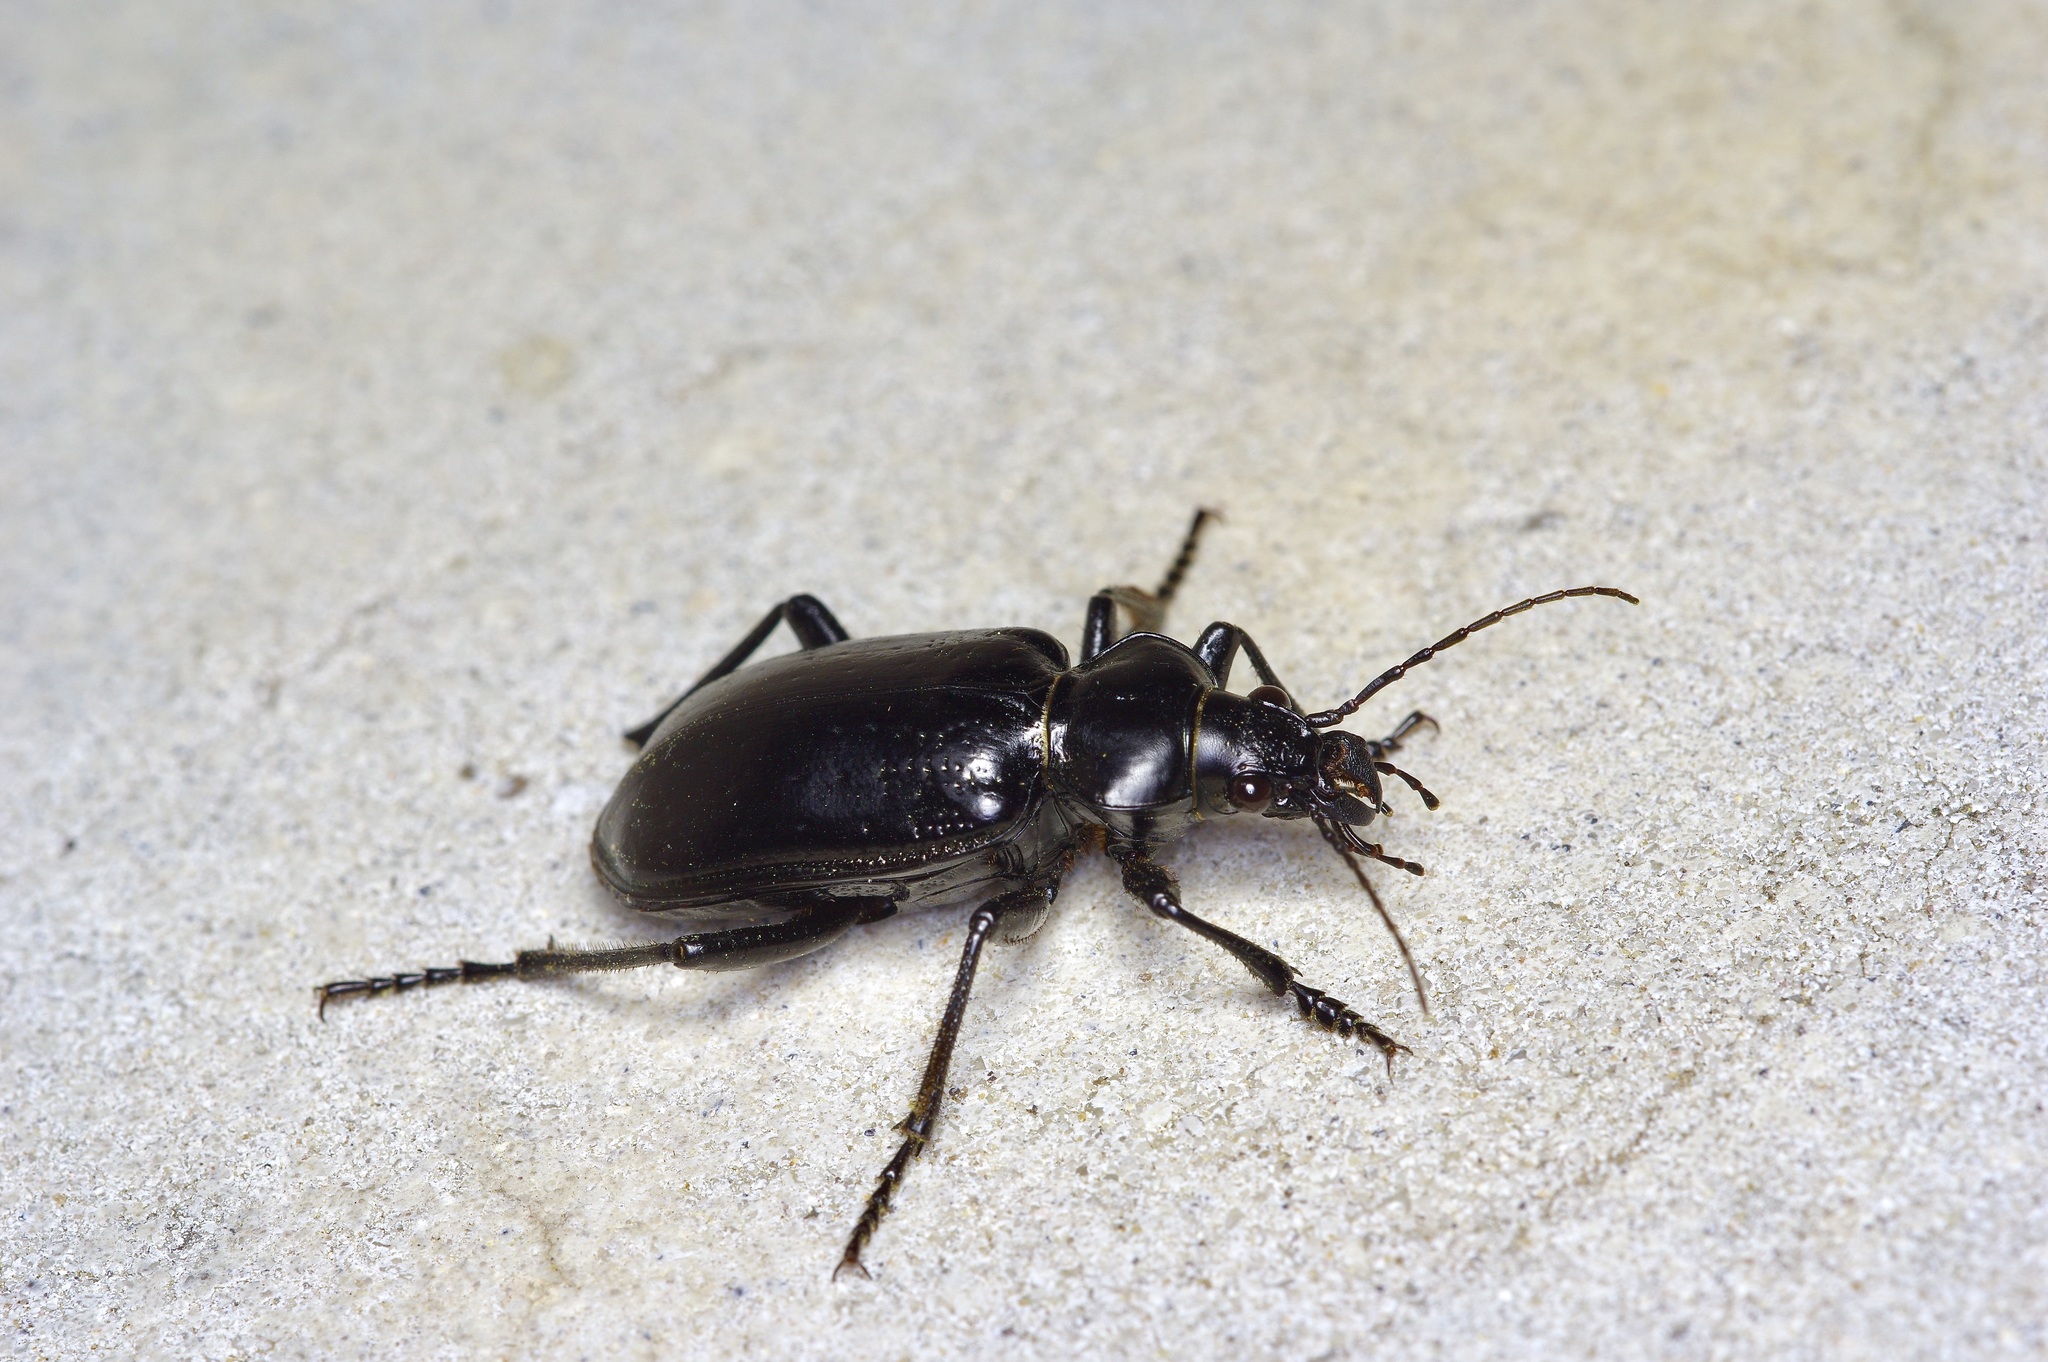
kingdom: Animalia
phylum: Arthropoda
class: Insecta
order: Coleoptera
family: Carabidae
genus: Calosoma
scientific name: Calosoma marginale
